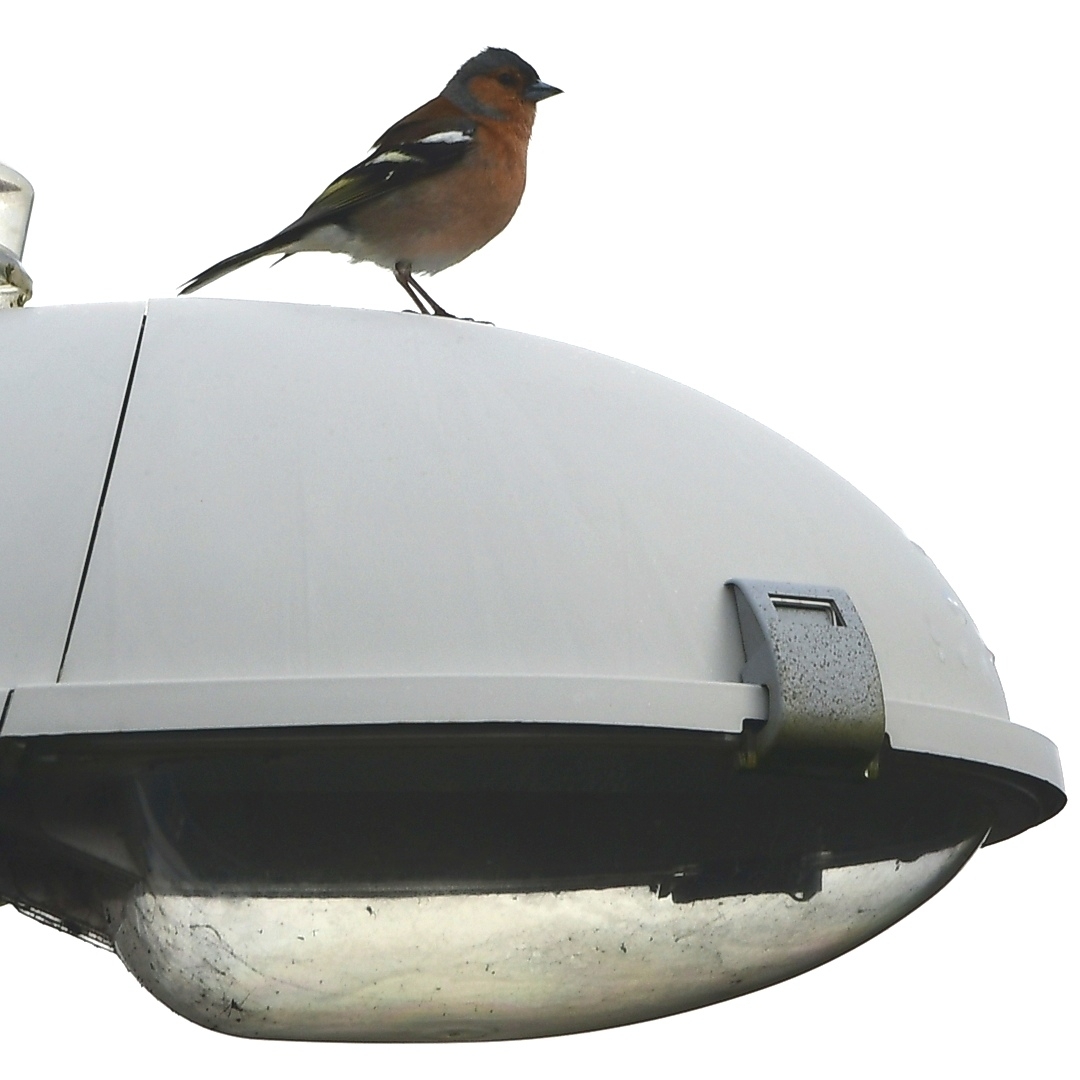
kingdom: Animalia
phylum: Chordata
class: Aves
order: Passeriformes
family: Fringillidae
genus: Fringilla
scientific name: Fringilla coelebs
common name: Common chaffinch
